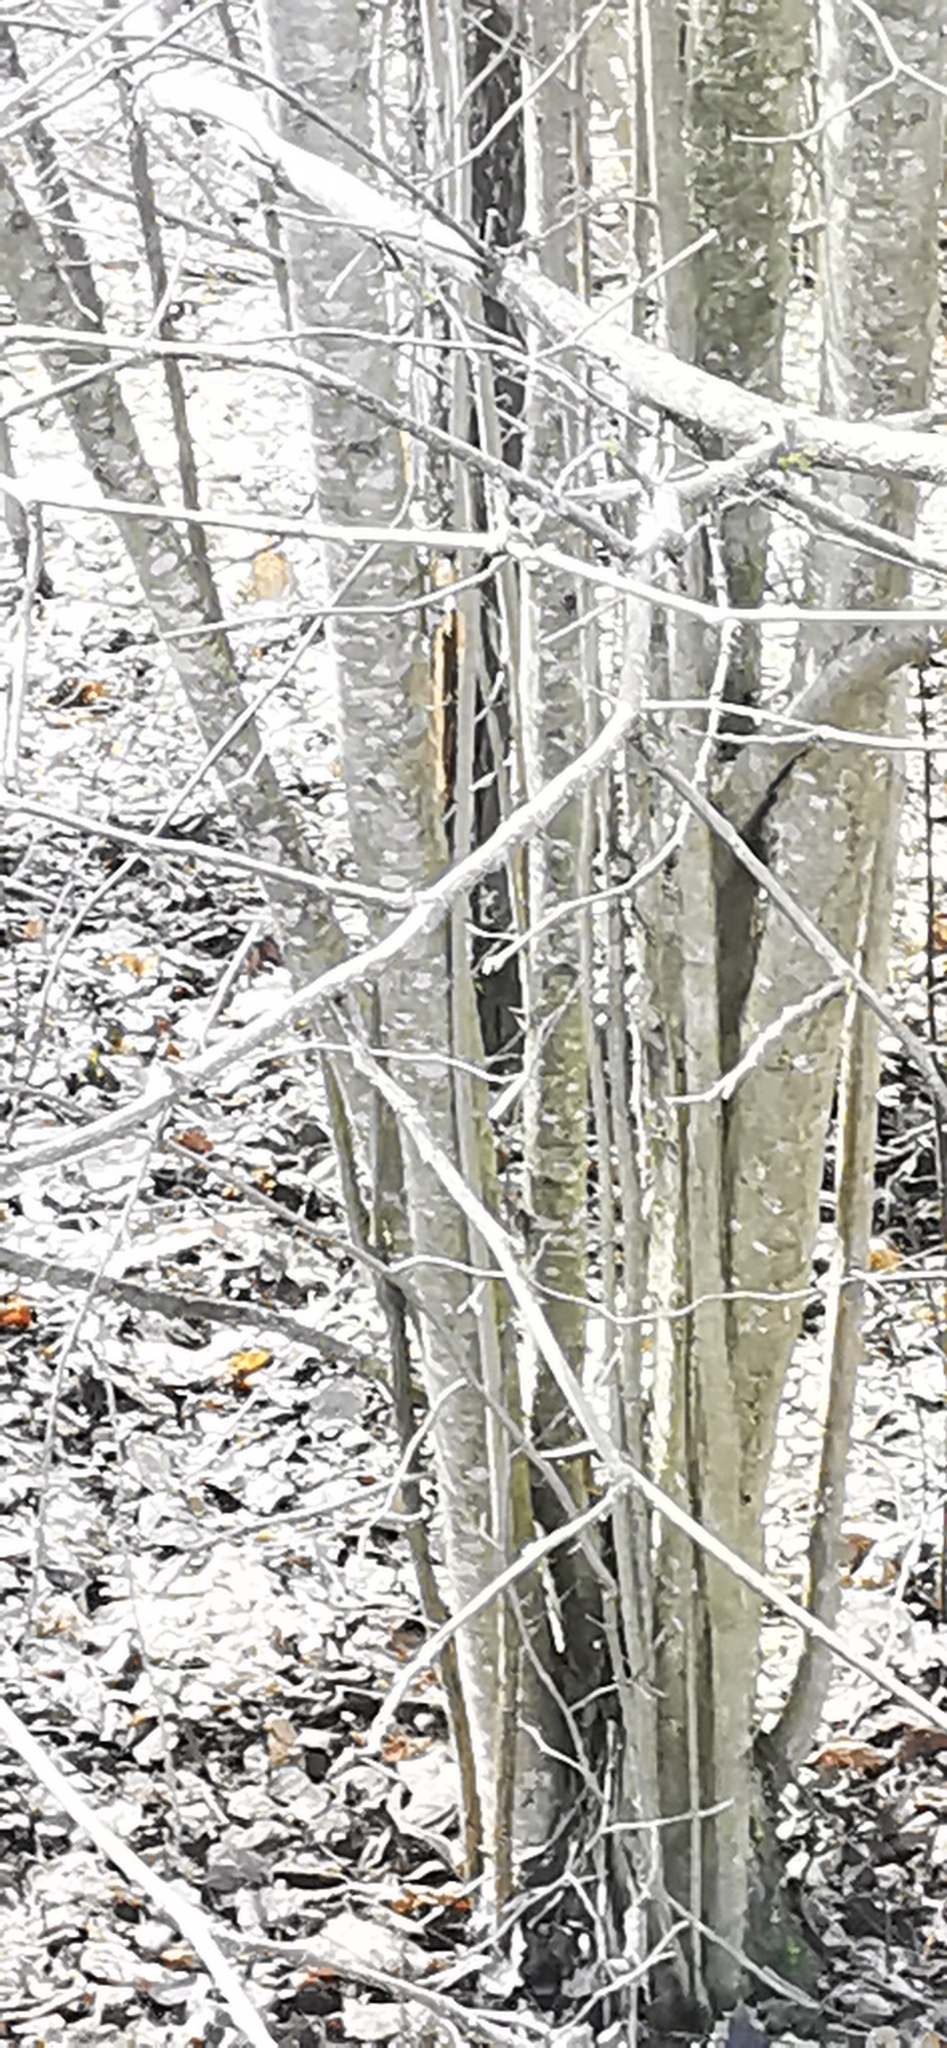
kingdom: Plantae
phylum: Tracheophyta
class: Magnoliopsida
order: Fagales
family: Betulaceae
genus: Corylus
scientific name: Corylus avellana
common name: European hazel
